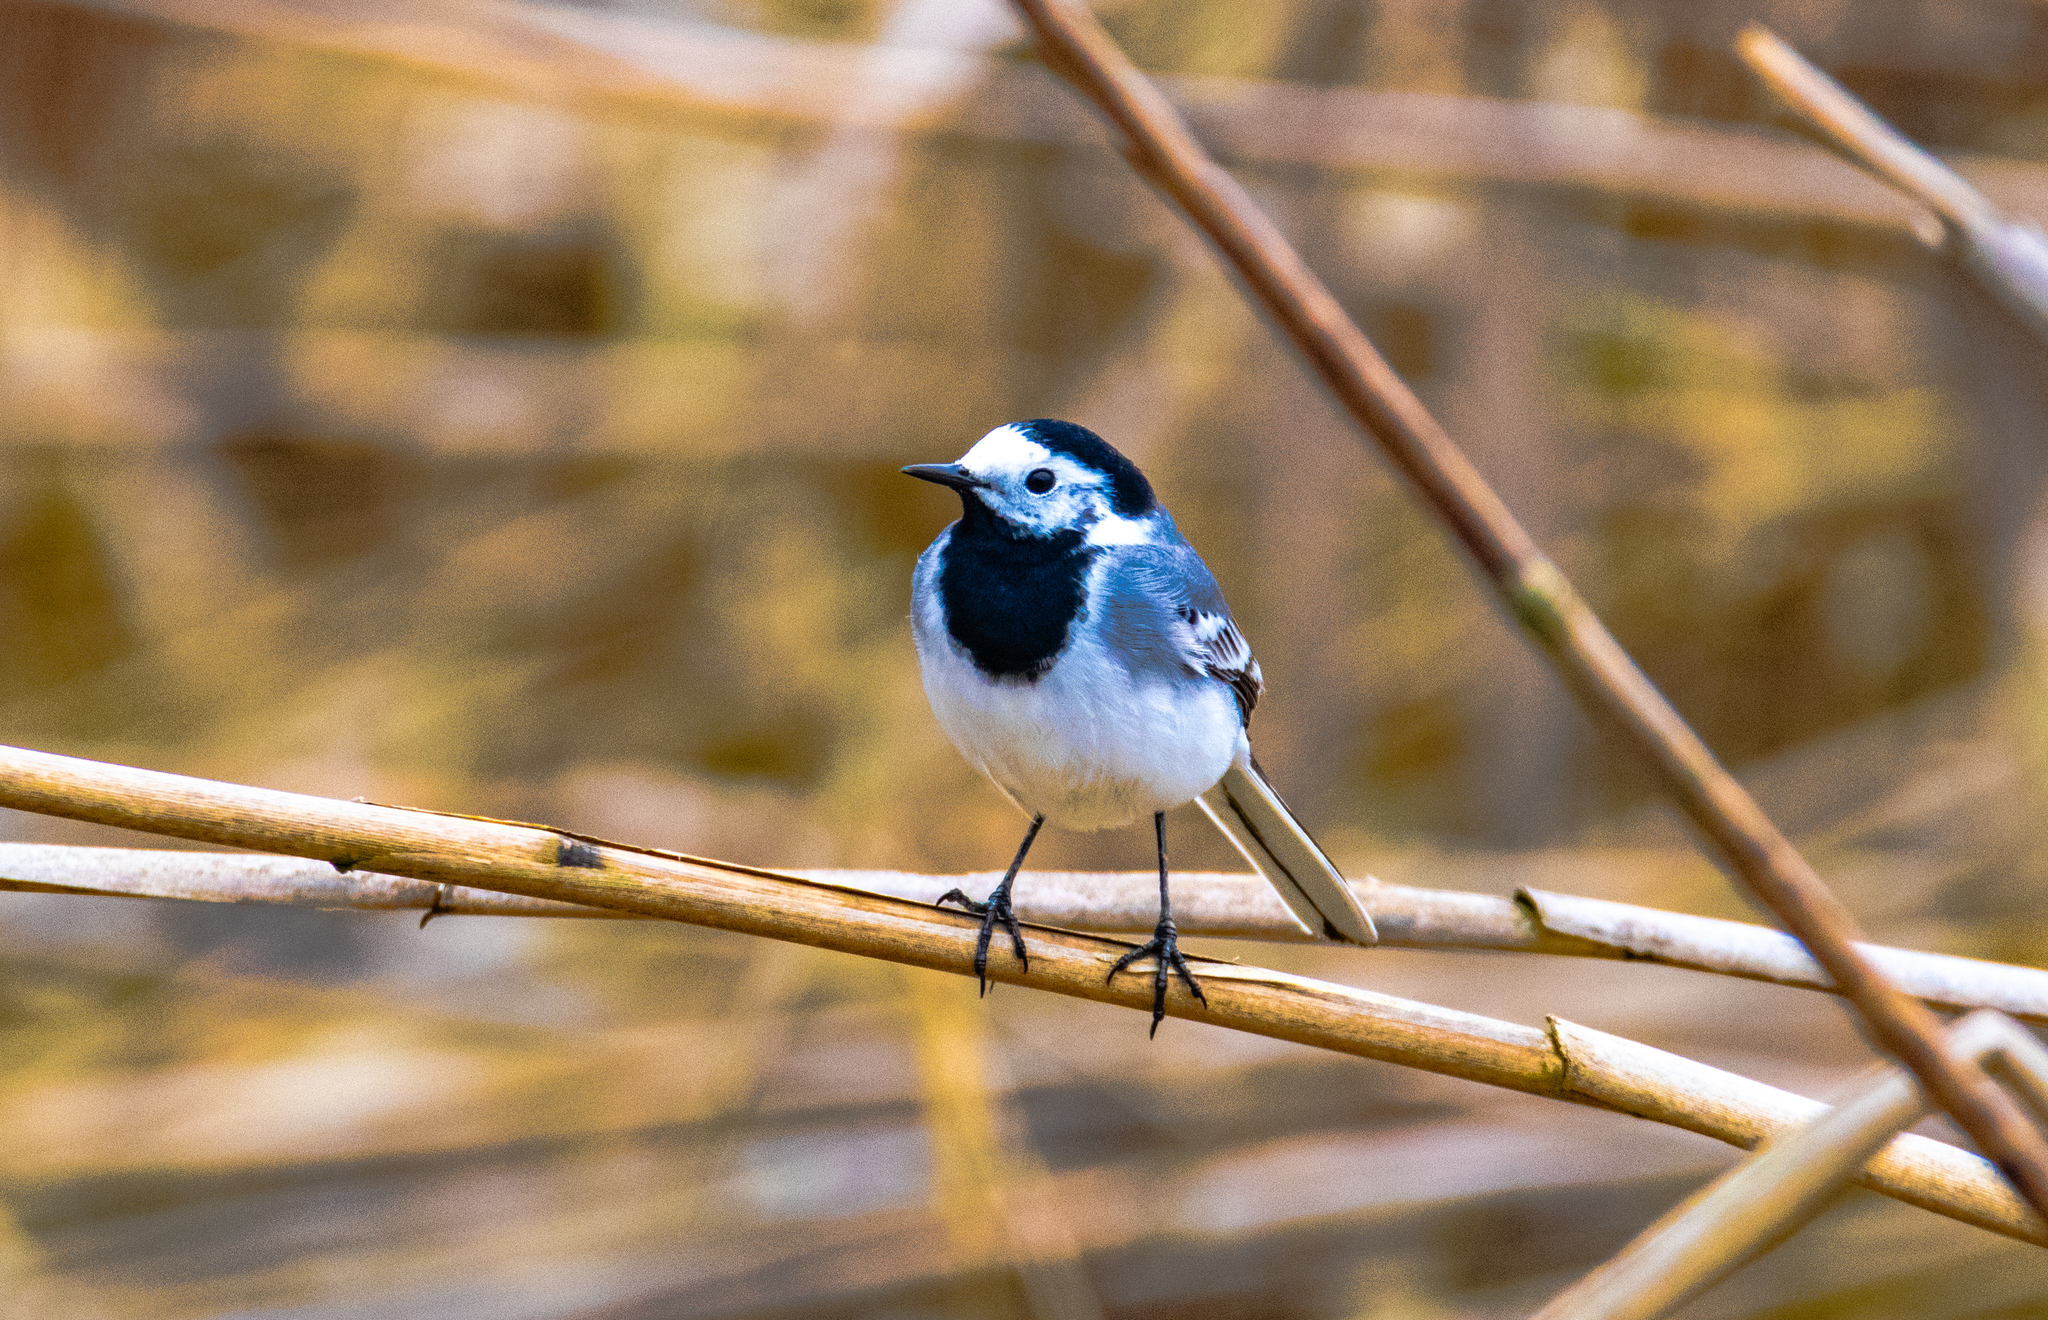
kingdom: Animalia
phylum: Chordata
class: Aves
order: Passeriformes
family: Motacillidae
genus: Motacilla
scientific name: Motacilla alba
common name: White wagtail
